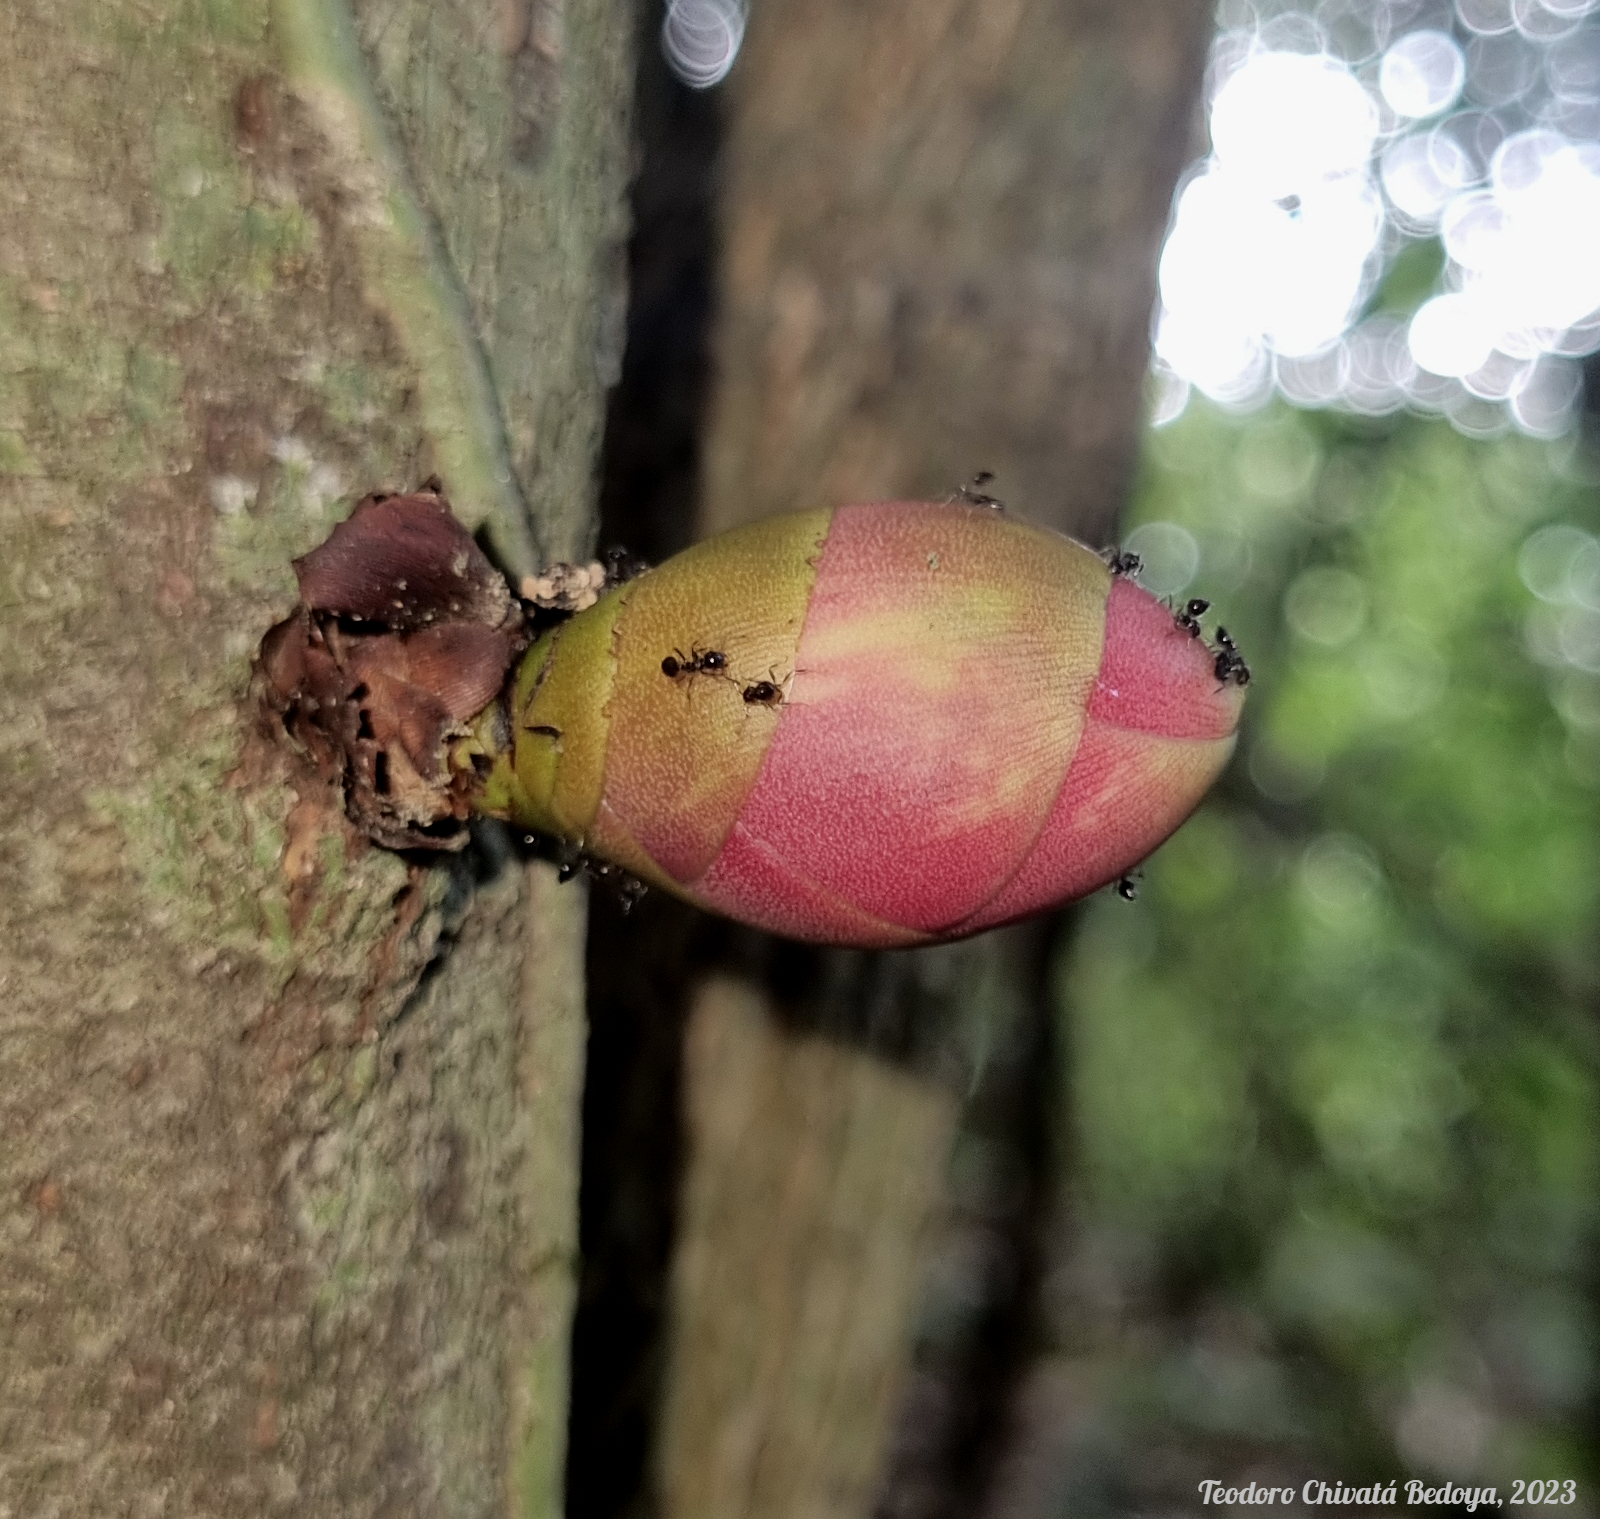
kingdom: Plantae
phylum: Tracheophyta
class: Magnoliopsida
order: Fabales
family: Fabaceae
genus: Brownea
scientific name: Brownea macrophylla
